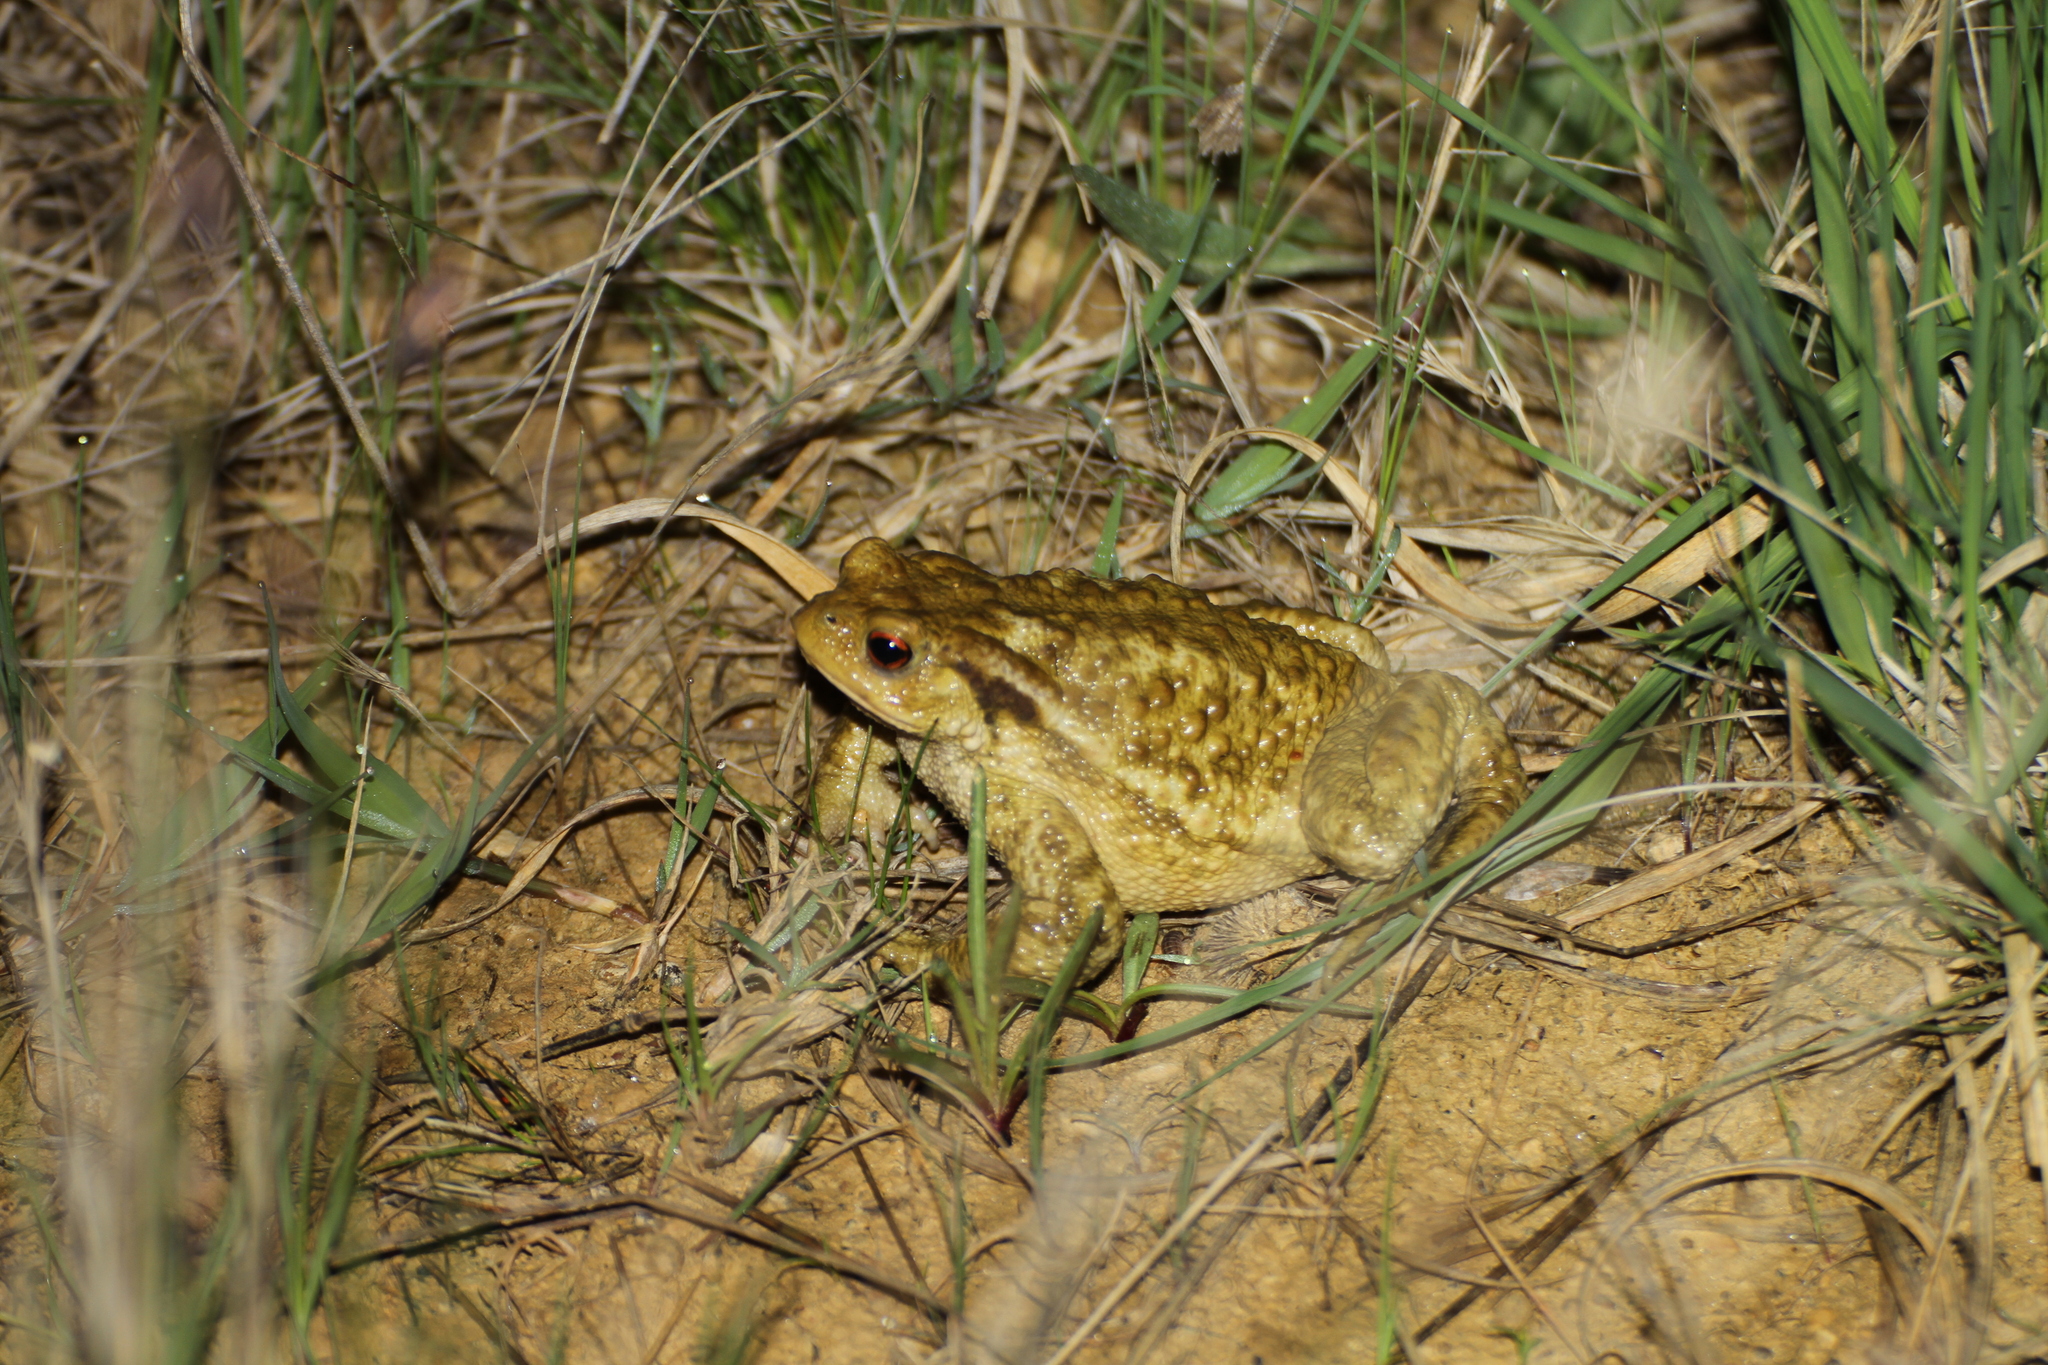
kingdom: Animalia
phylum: Chordata
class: Amphibia
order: Anura
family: Bufonidae
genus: Bufo
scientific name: Bufo spinosus
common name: Western common toad
